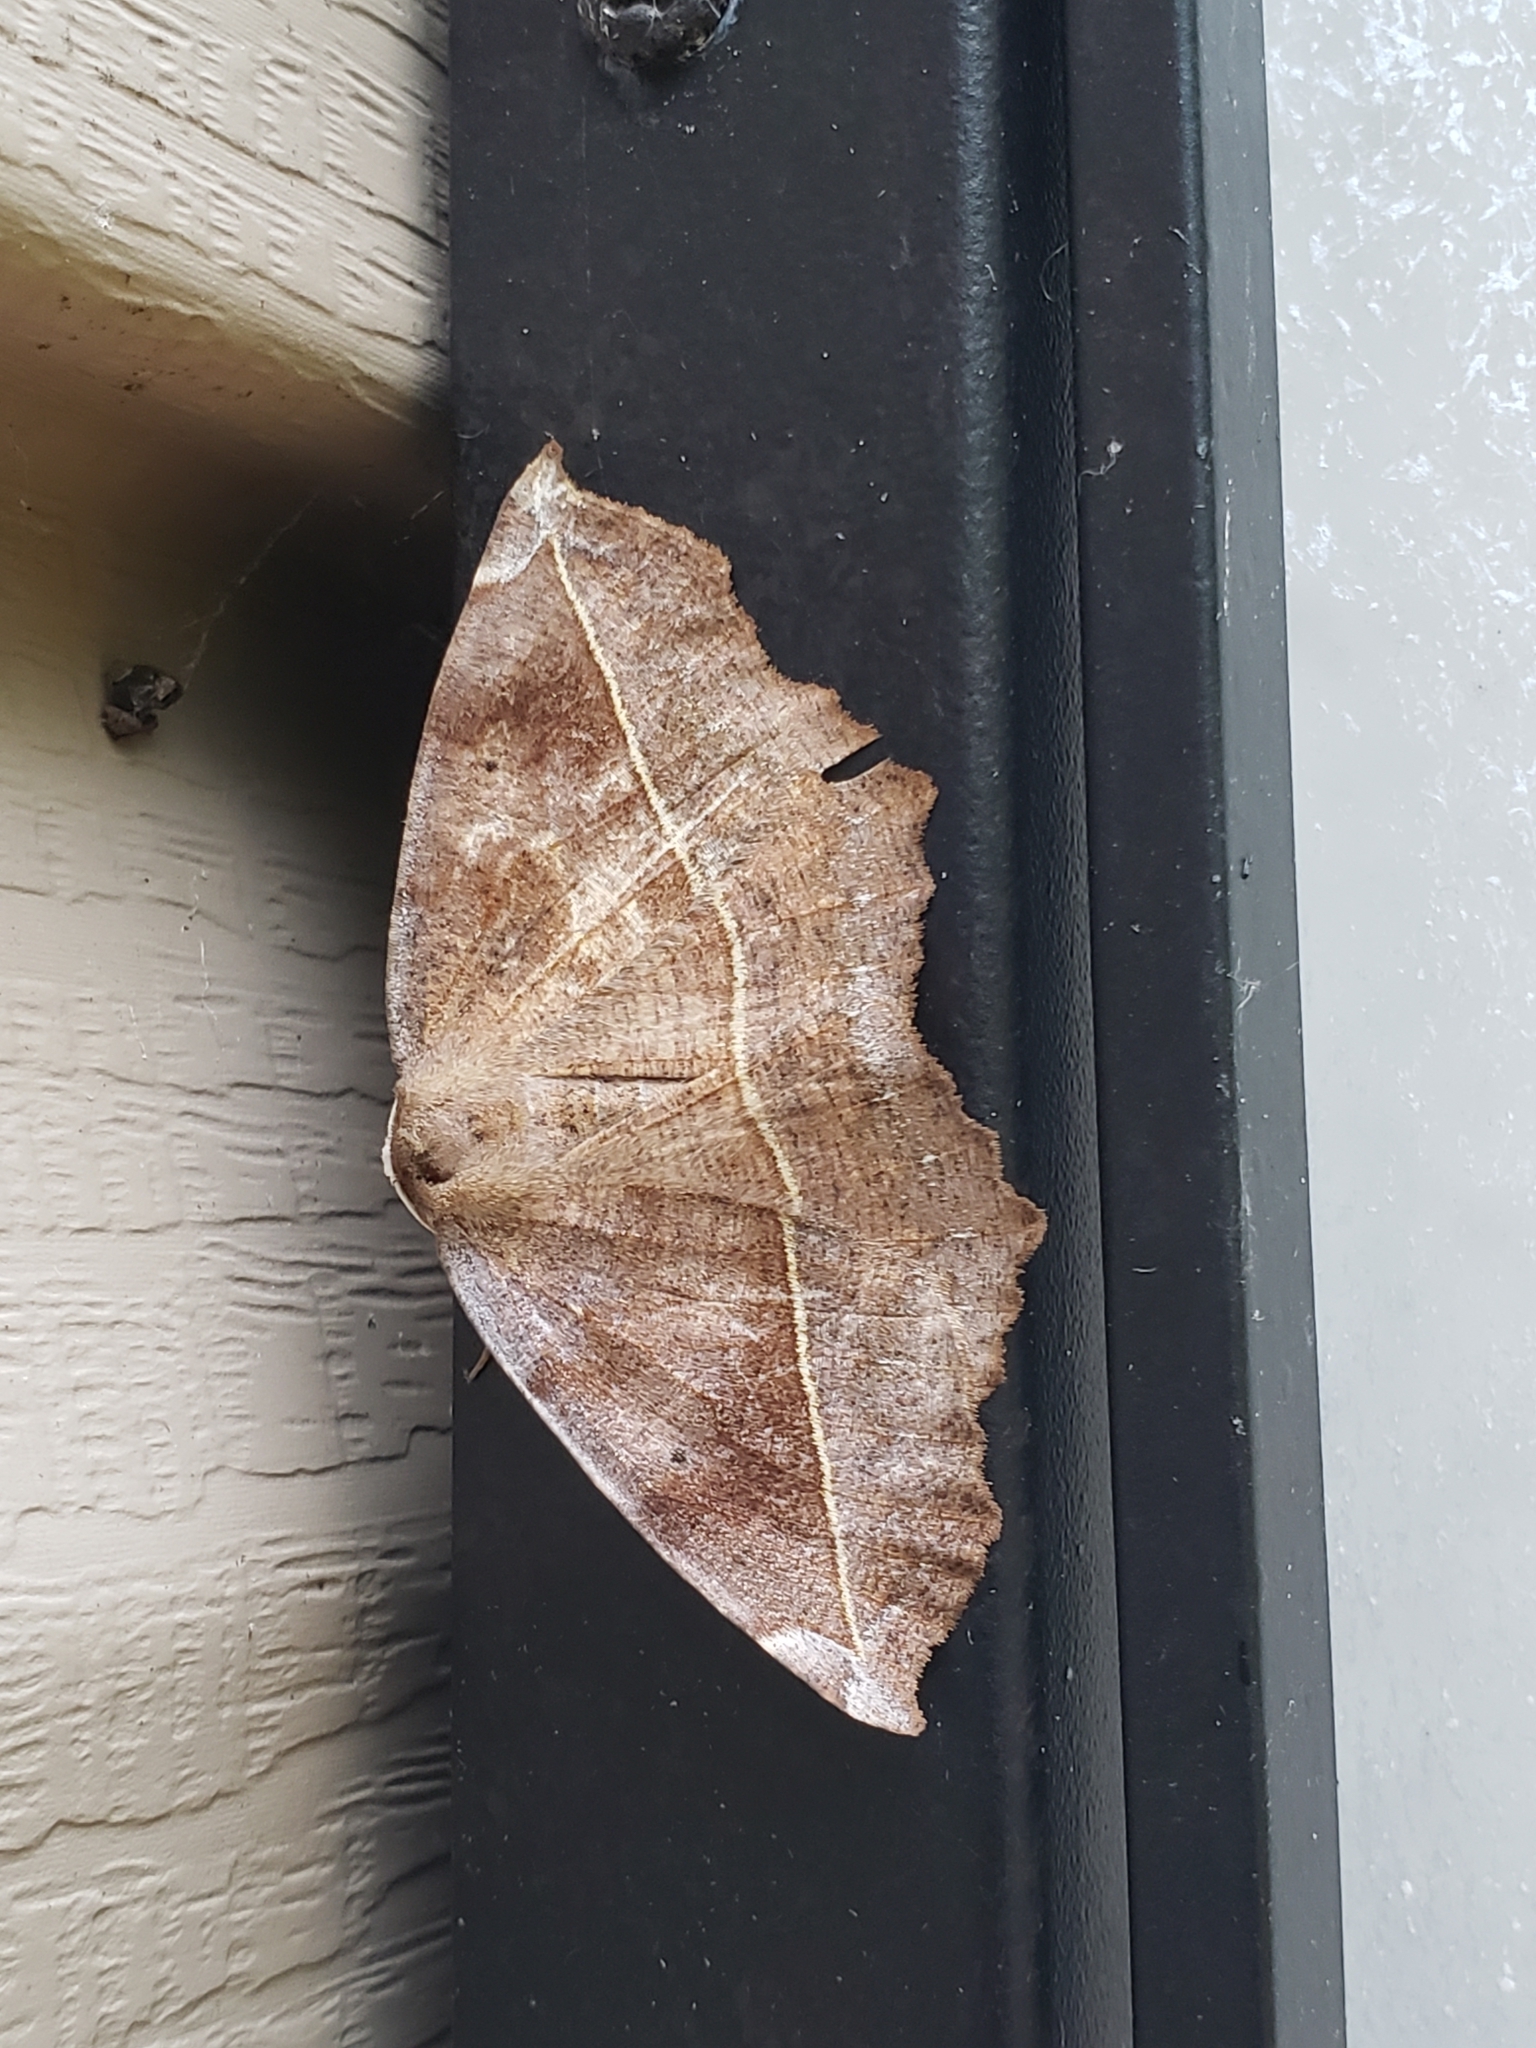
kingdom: Animalia
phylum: Arthropoda
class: Insecta
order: Lepidoptera
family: Geometridae
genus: Eutrapela
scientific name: Eutrapela clemataria
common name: Curved-toothed geometer
